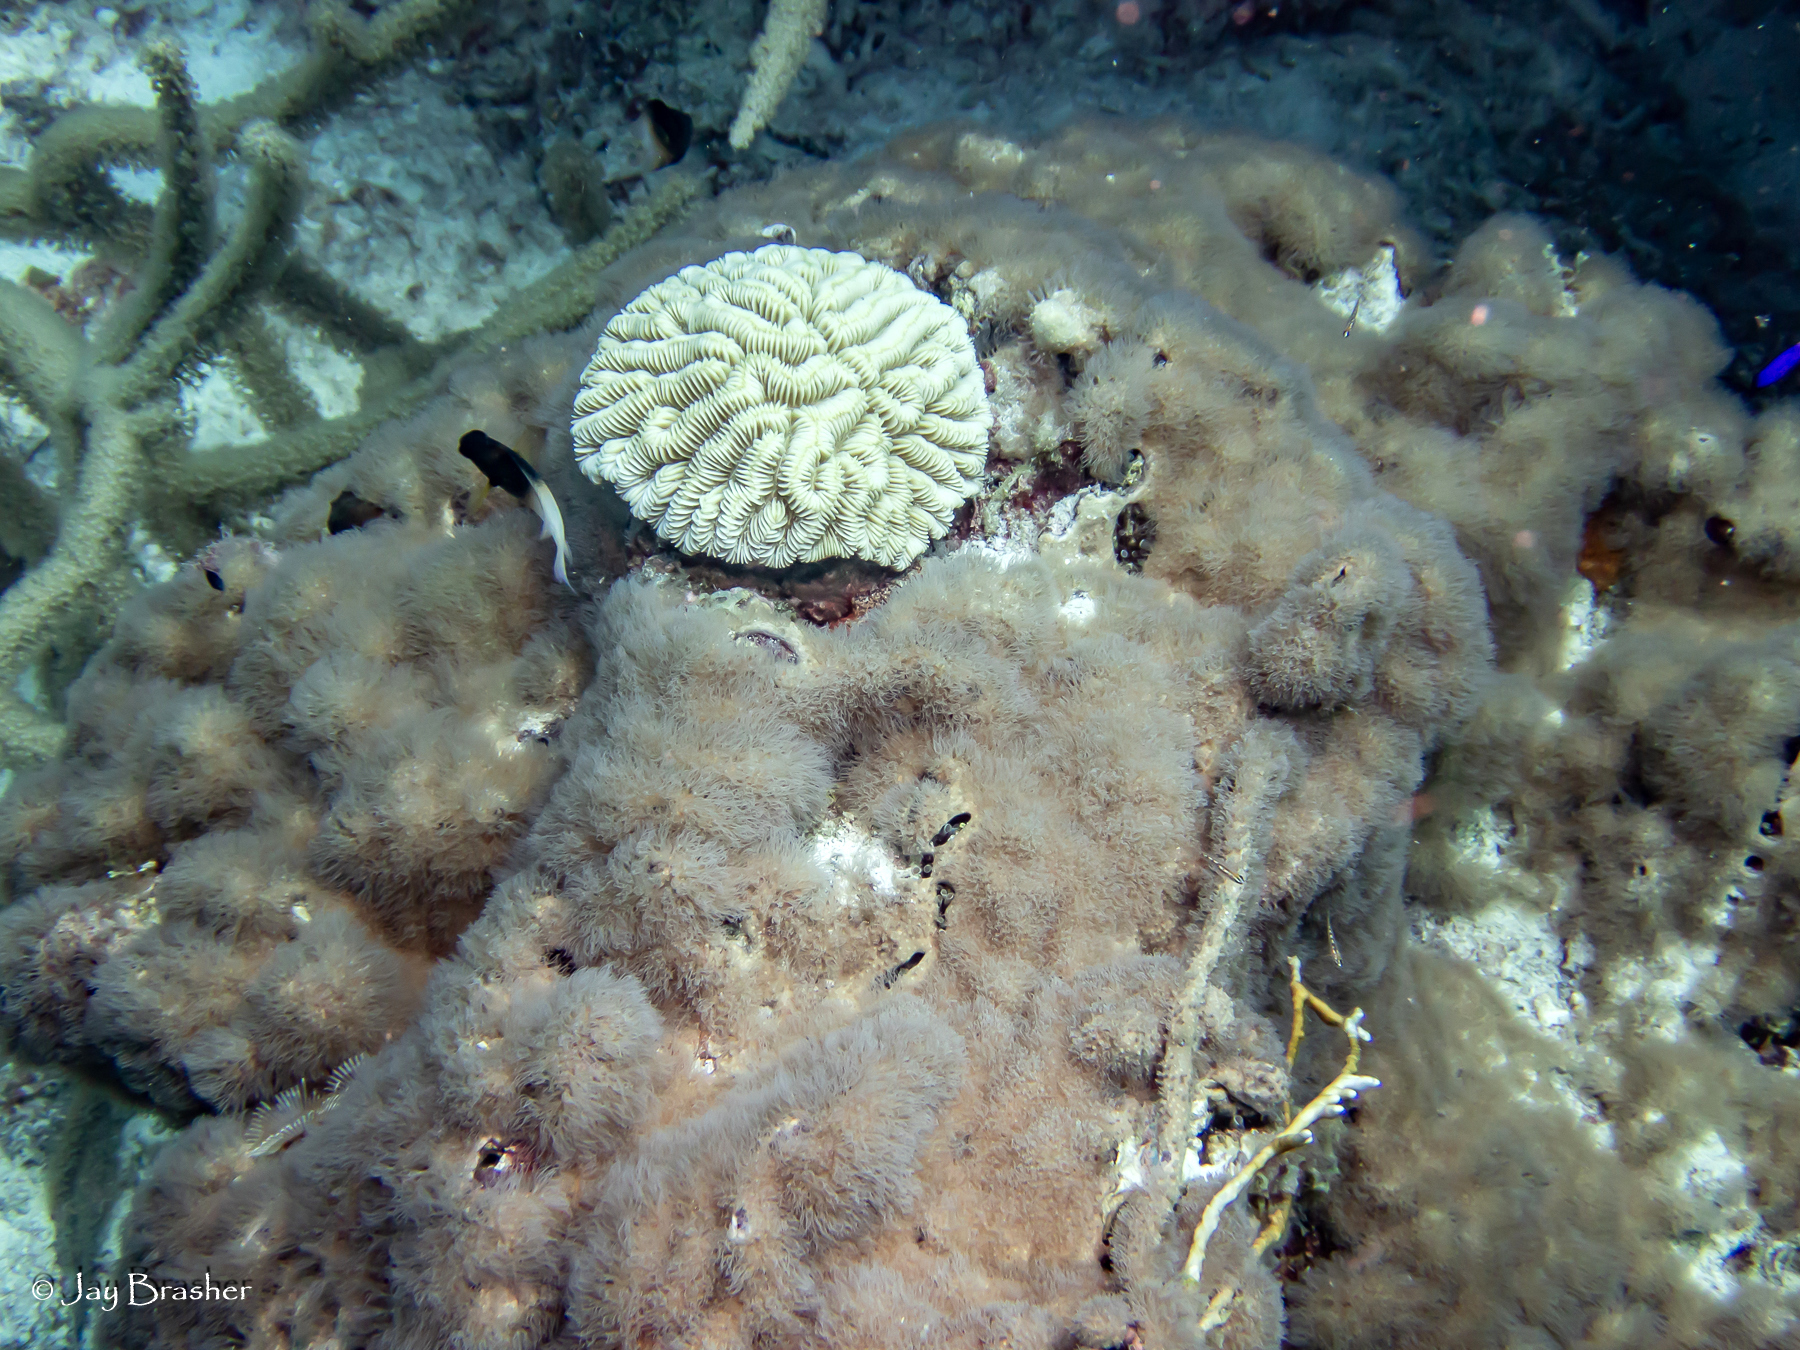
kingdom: Animalia
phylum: Cnidaria
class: Anthozoa
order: Scleractinia
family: Meandrinidae
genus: Meandrina
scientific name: Meandrina meandrites
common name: Maze coral
